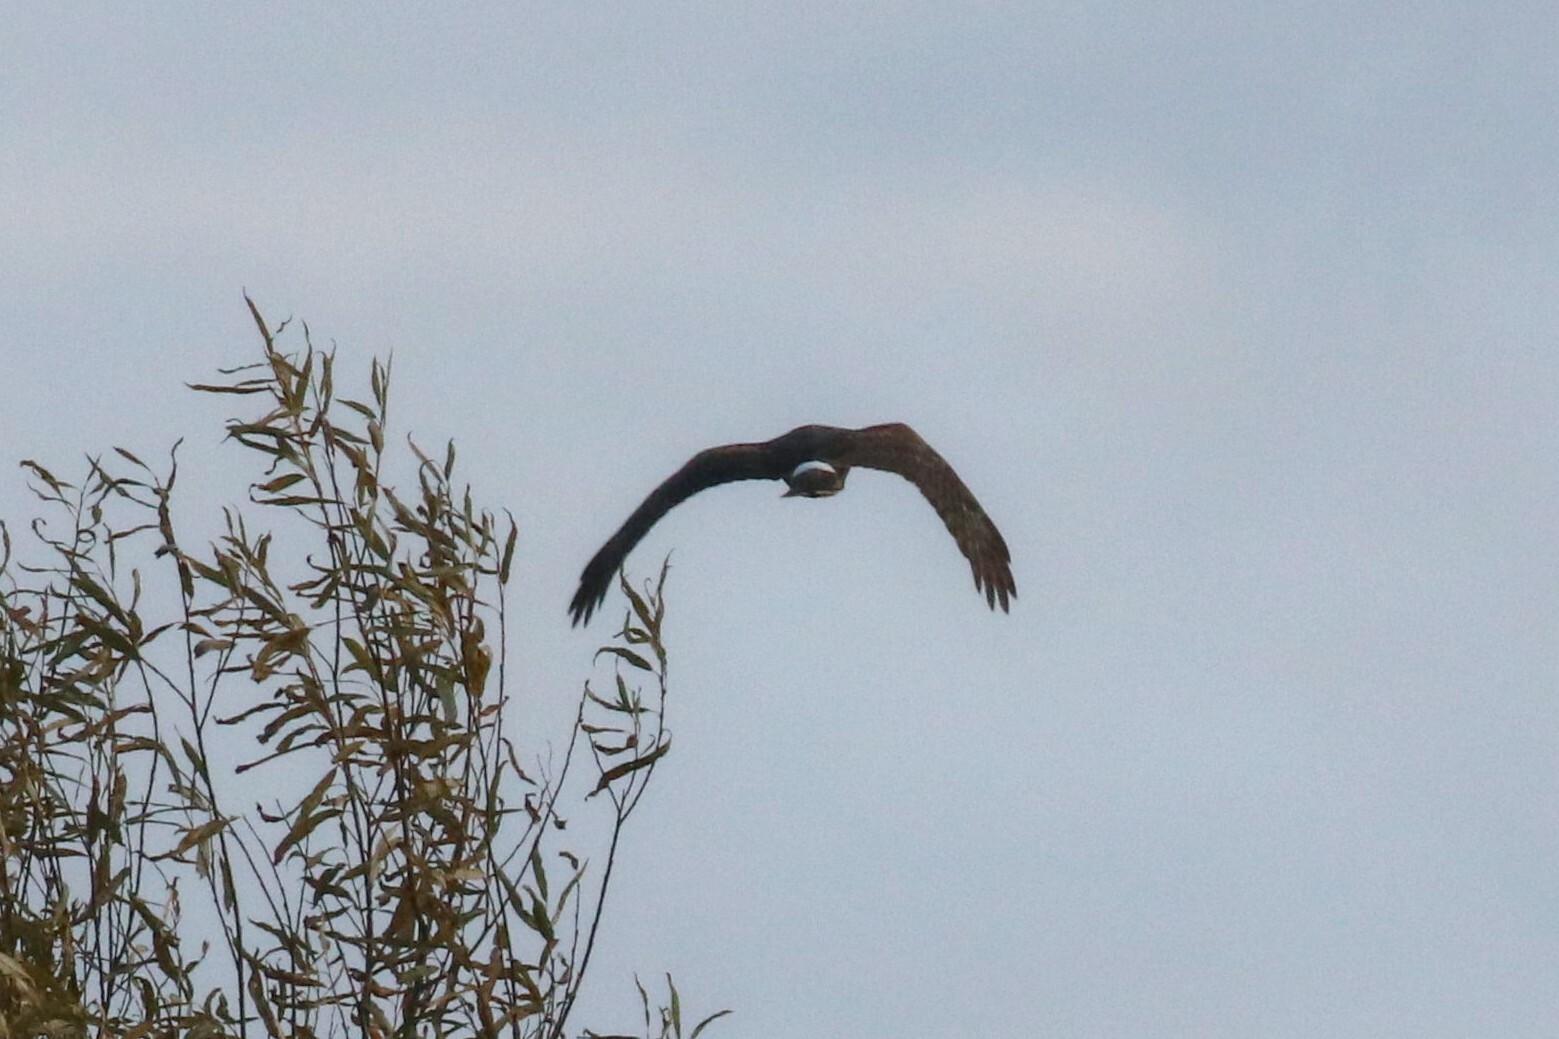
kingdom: Animalia
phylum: Chordata
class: Aves
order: Accipitriformes
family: Accipitridae
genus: Circus
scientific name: Circus cyaneus
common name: Hen harrier
